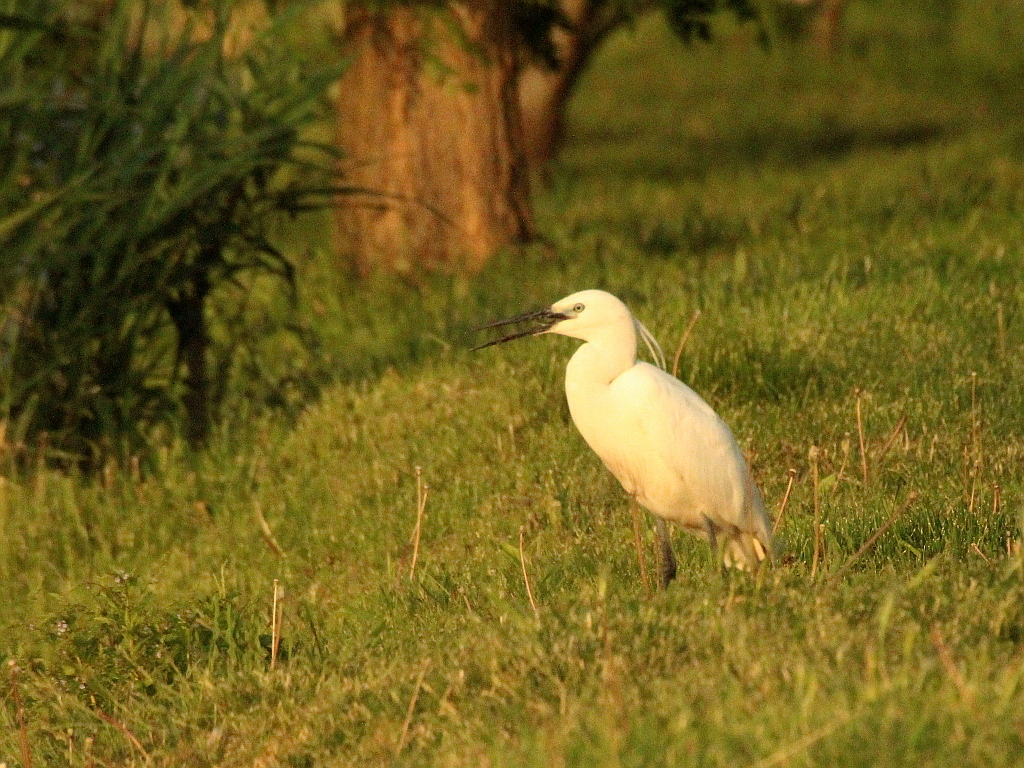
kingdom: Animalia
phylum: Chordata
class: Aves
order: Pelecaniformes
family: Ardeidae
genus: Egretta
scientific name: Egretta garzetta
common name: Little egret
